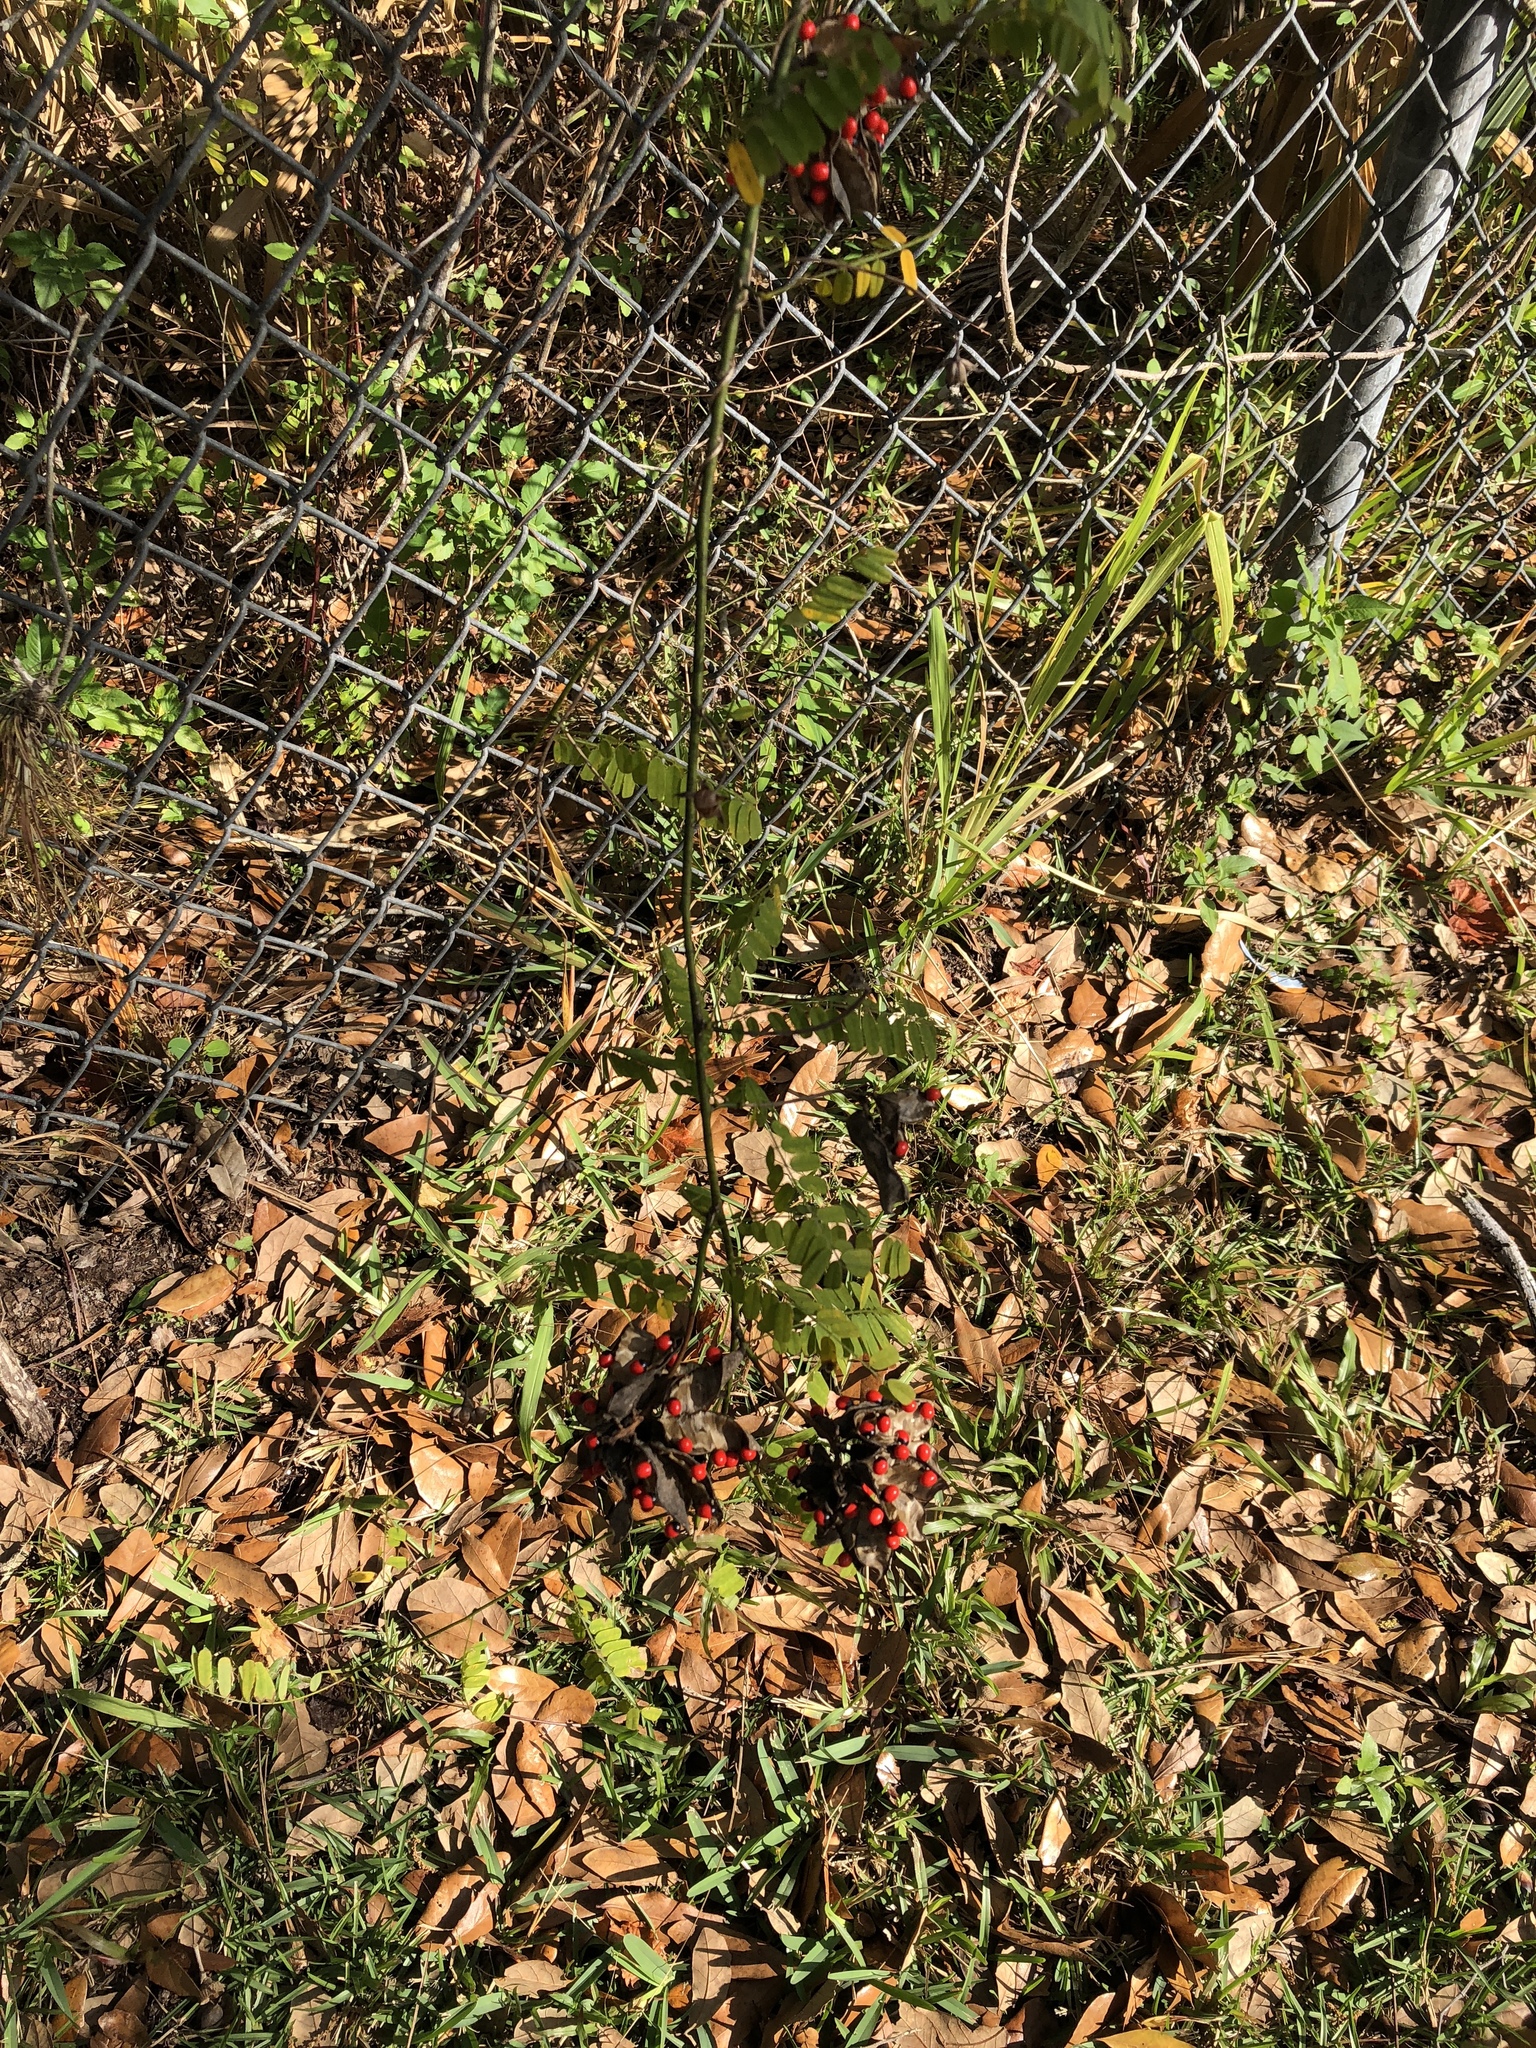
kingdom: Plantae
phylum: Tracheophyta
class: Magnoliopsida
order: Fabales
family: Fabaceae
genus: Abrus
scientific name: Abrus precatorius
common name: Rosarypea
